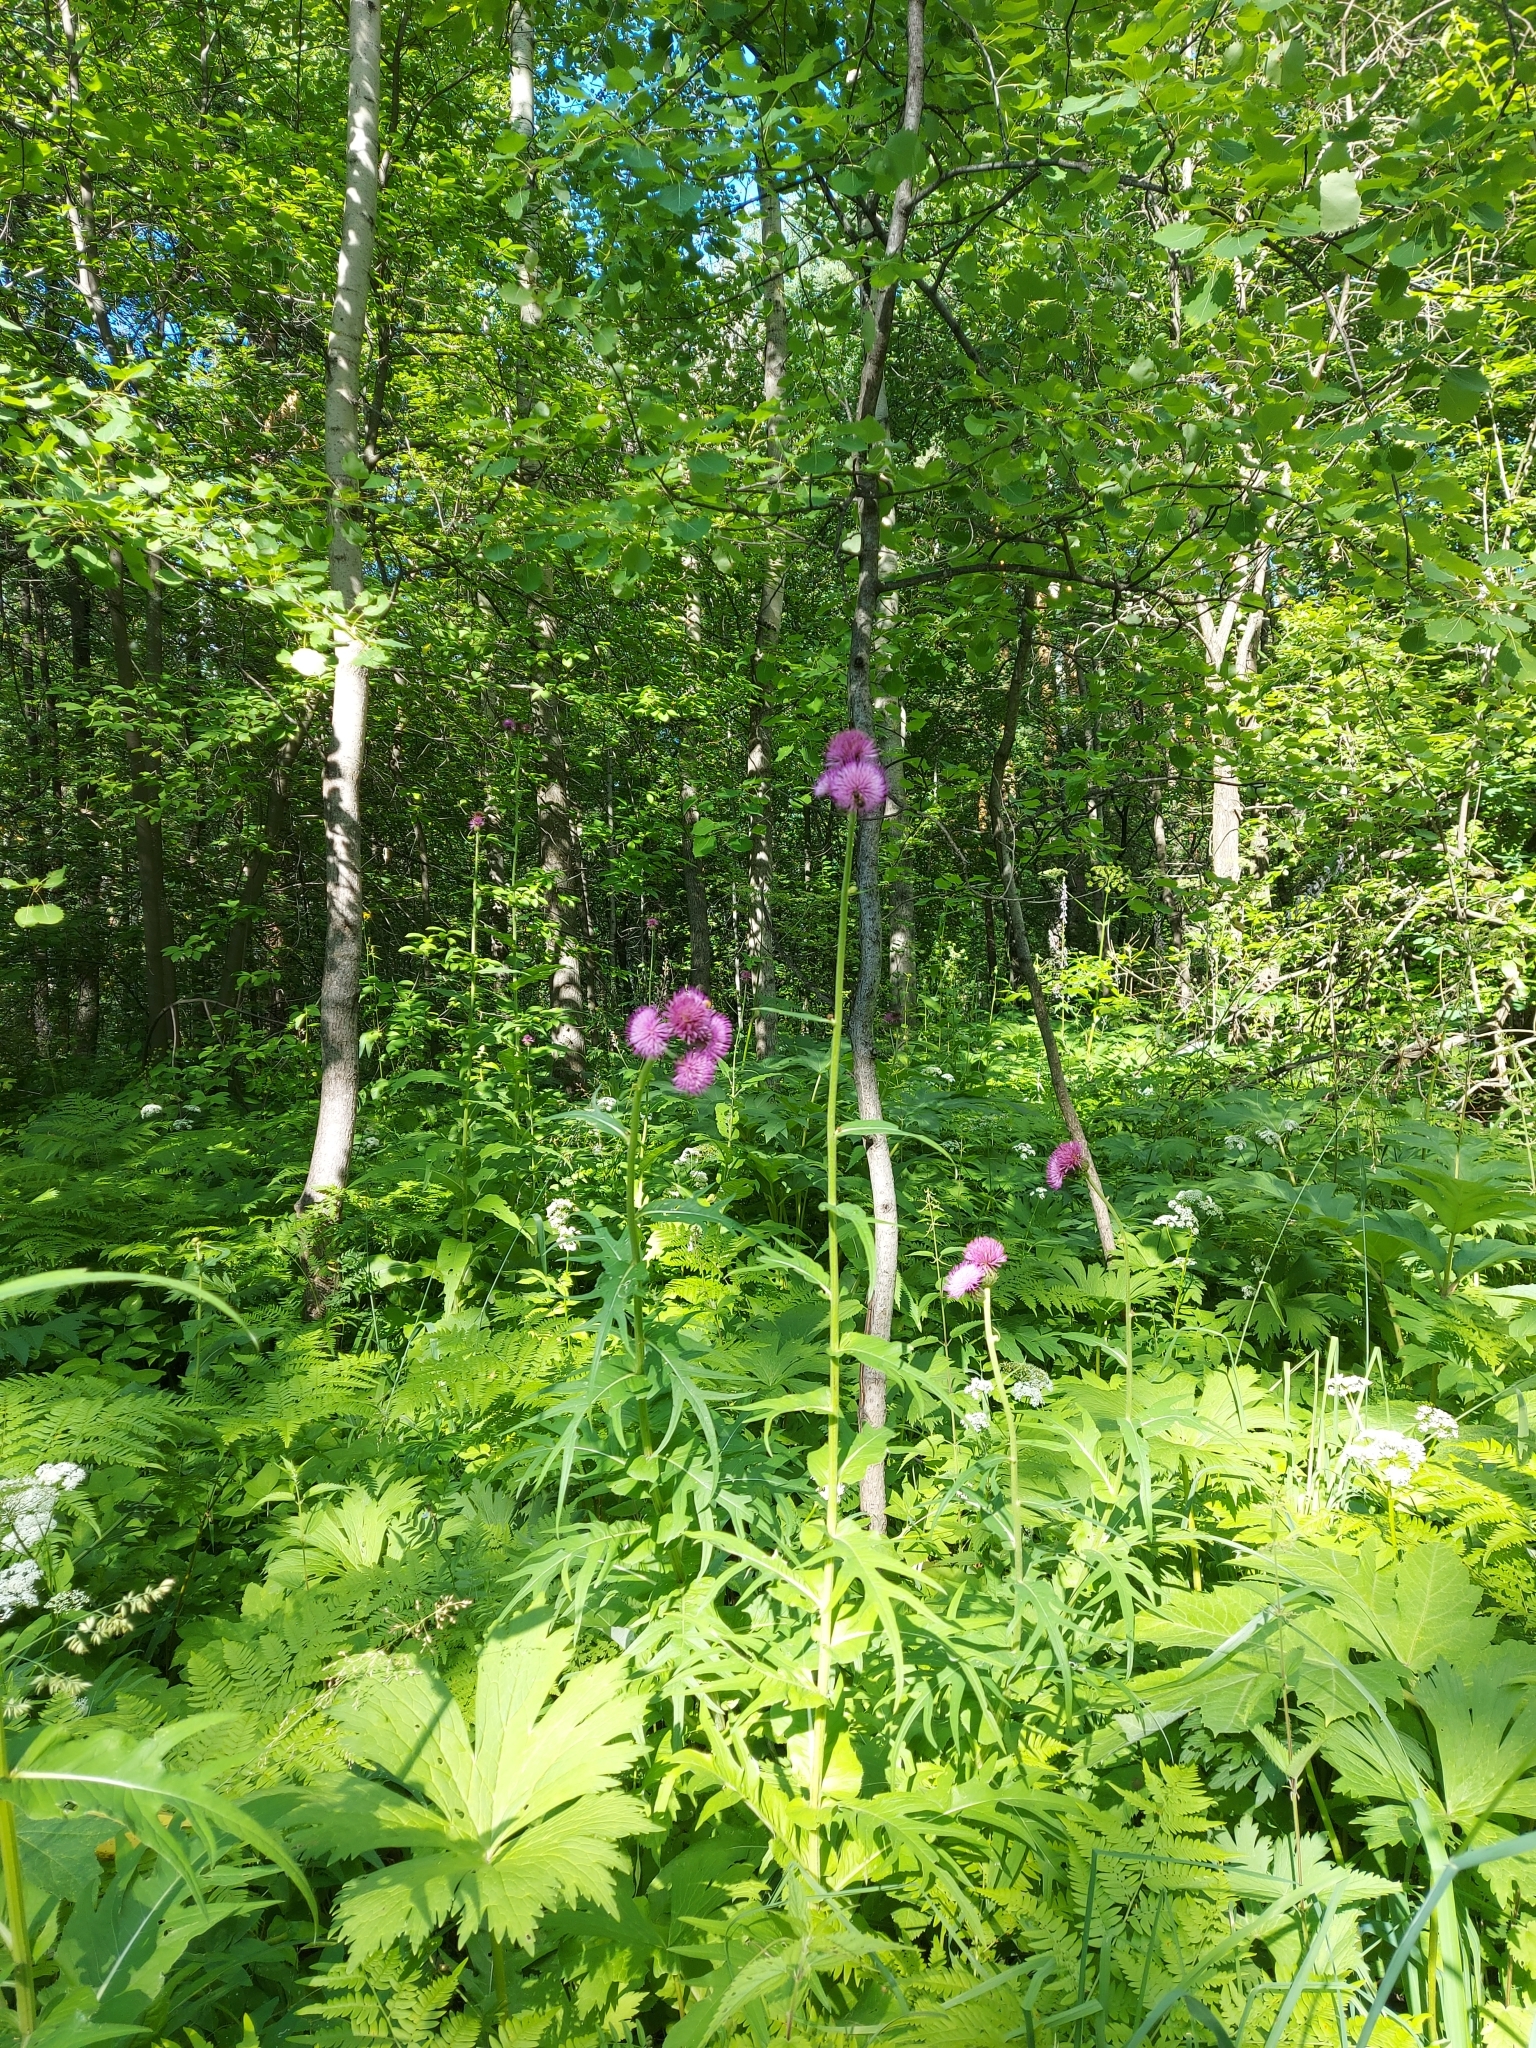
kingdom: Plantae
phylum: Tracheophyta
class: Magnoliopsida
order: Asterales
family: Asteraceae
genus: Cirsium
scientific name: Cirsium heterophyllum
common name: Melancholy thistle
